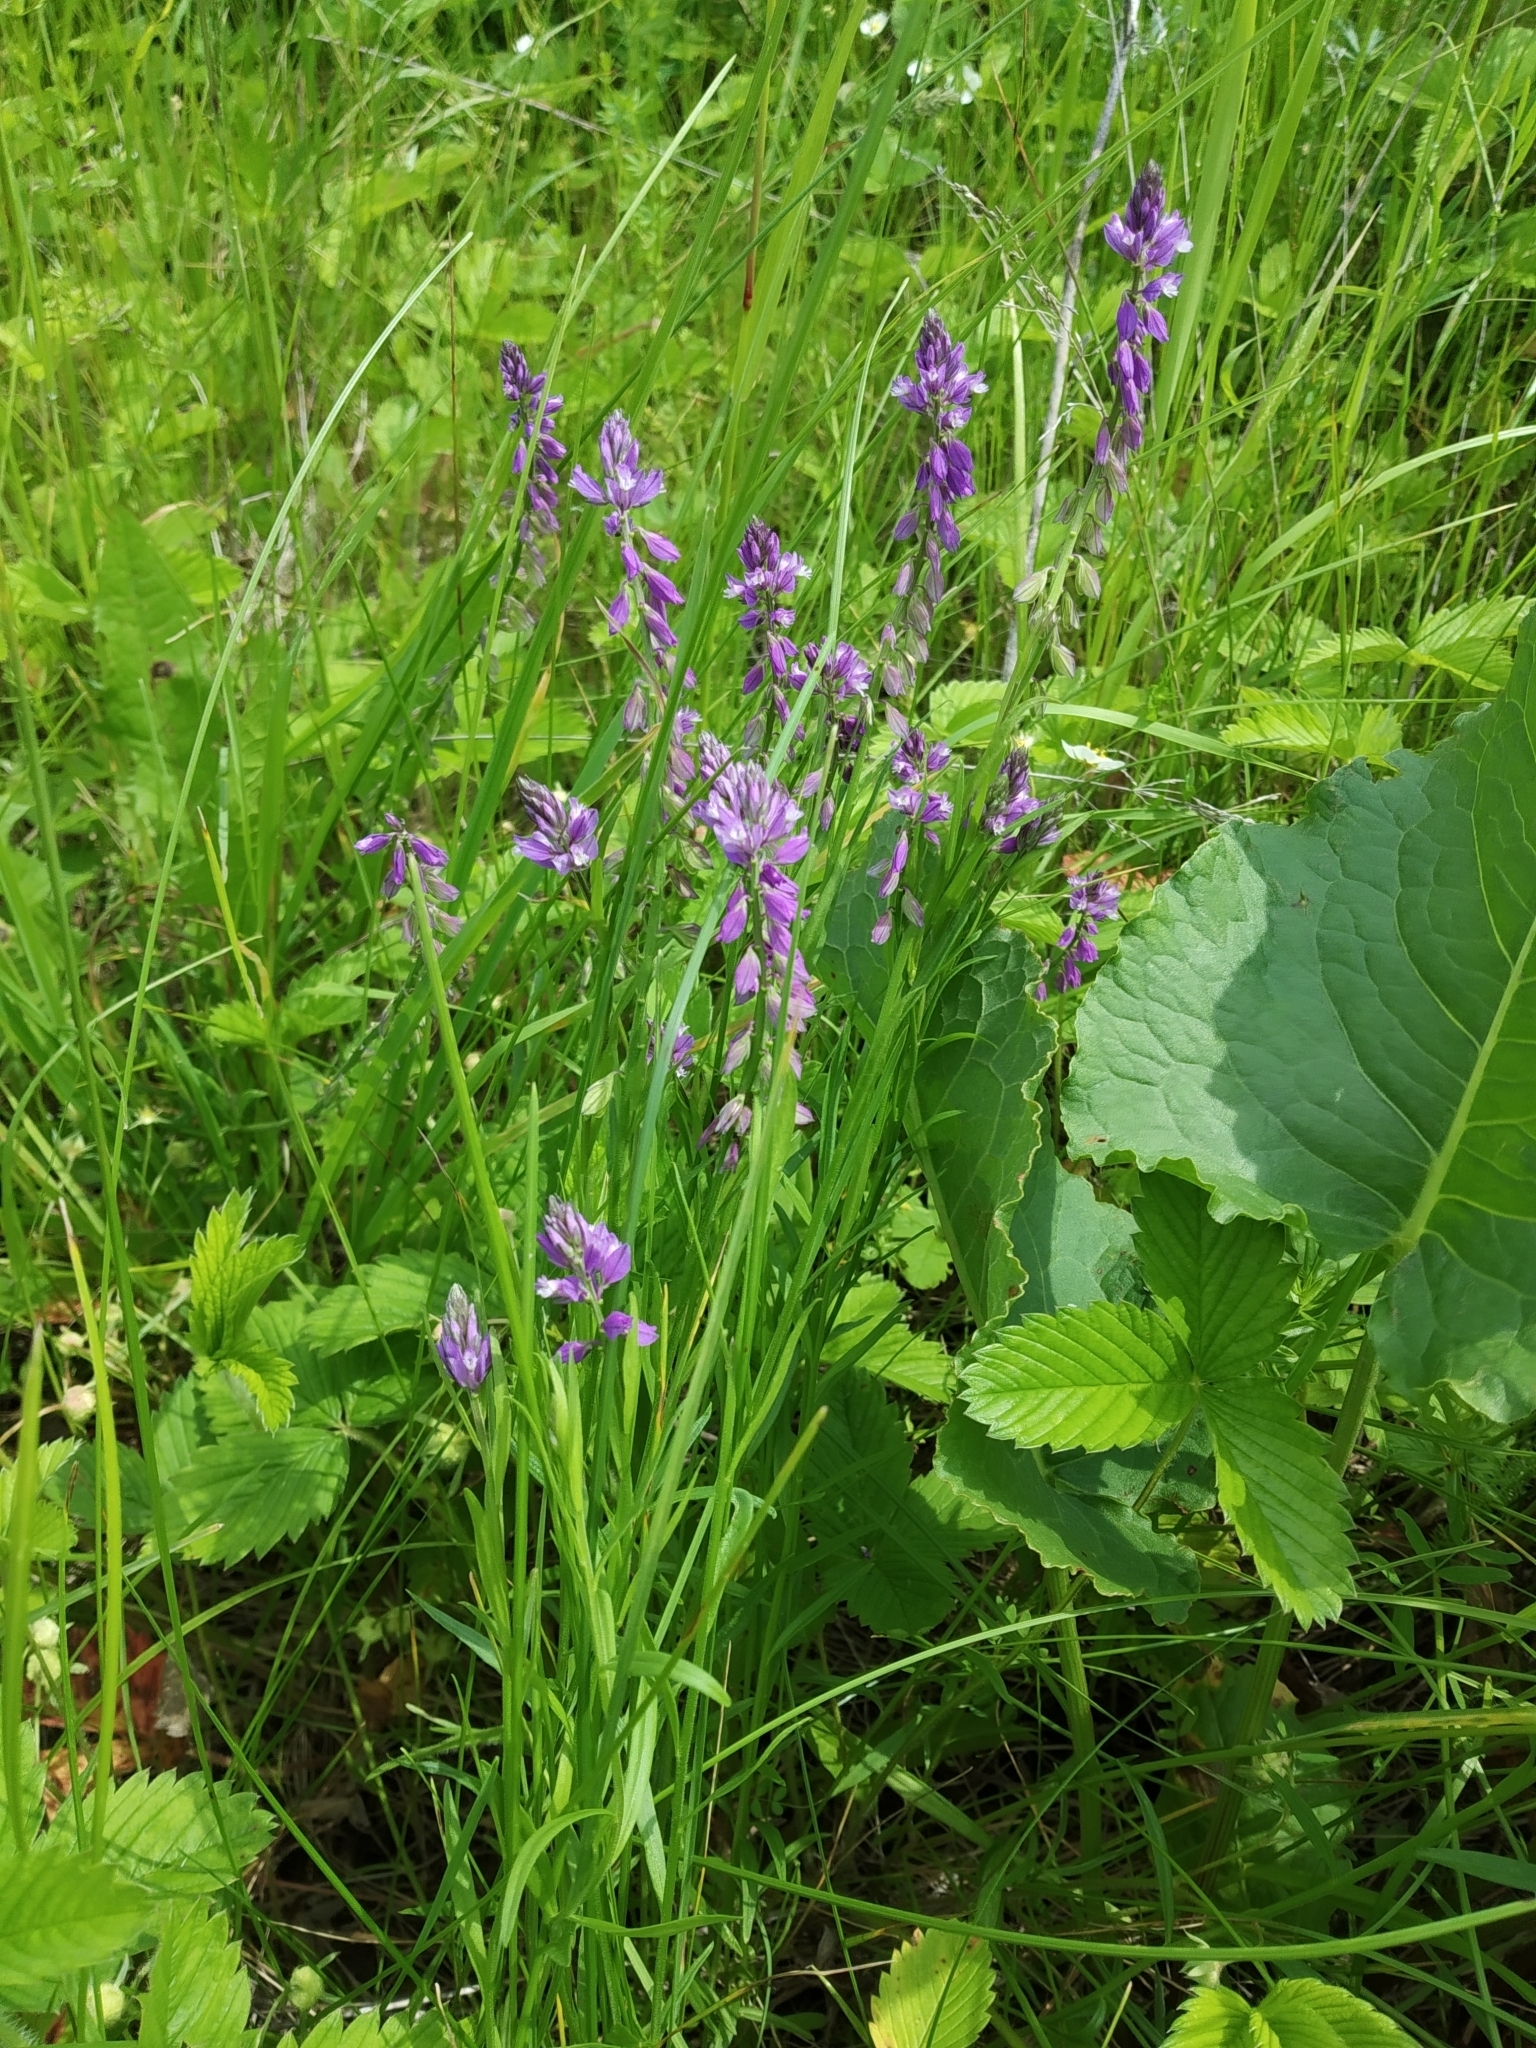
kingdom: Plantae
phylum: Tracheophyta
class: Magnoliopsida
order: Fabales
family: Polygalaceae
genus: Polygala
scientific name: Polygala comosa
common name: Tufted milkwort
